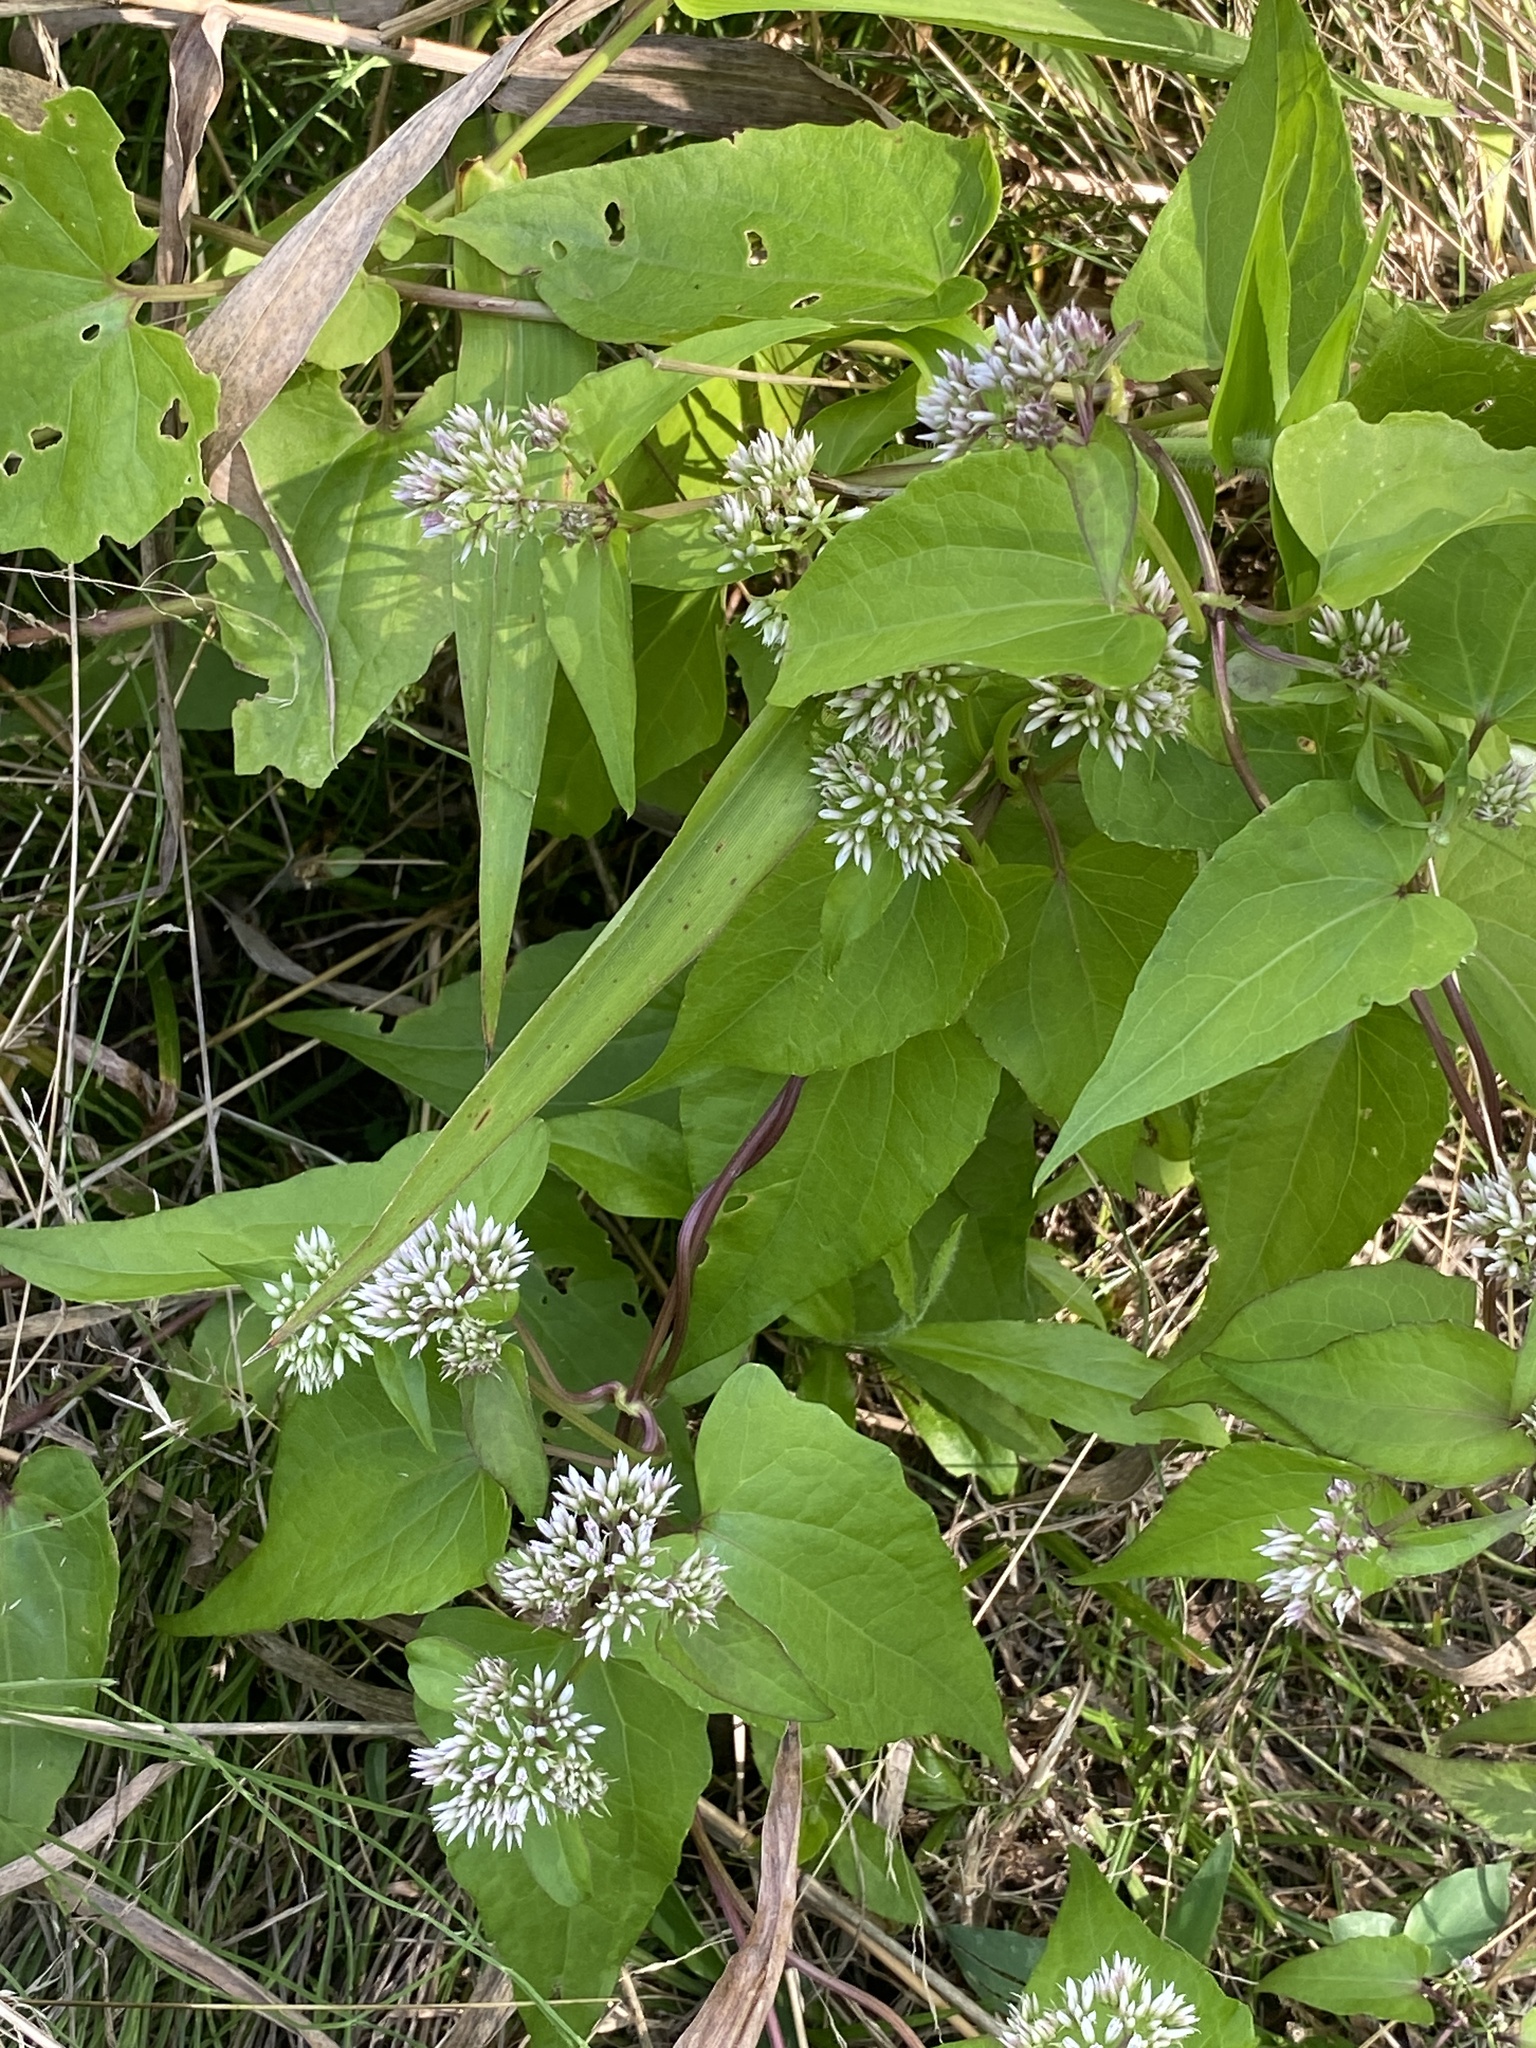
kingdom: Plantae
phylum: Tracheophyta
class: Magnoliopsida
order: Asterales
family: Asteraceae
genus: Mikania
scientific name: Mikania scandens
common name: Climbing hempvine
